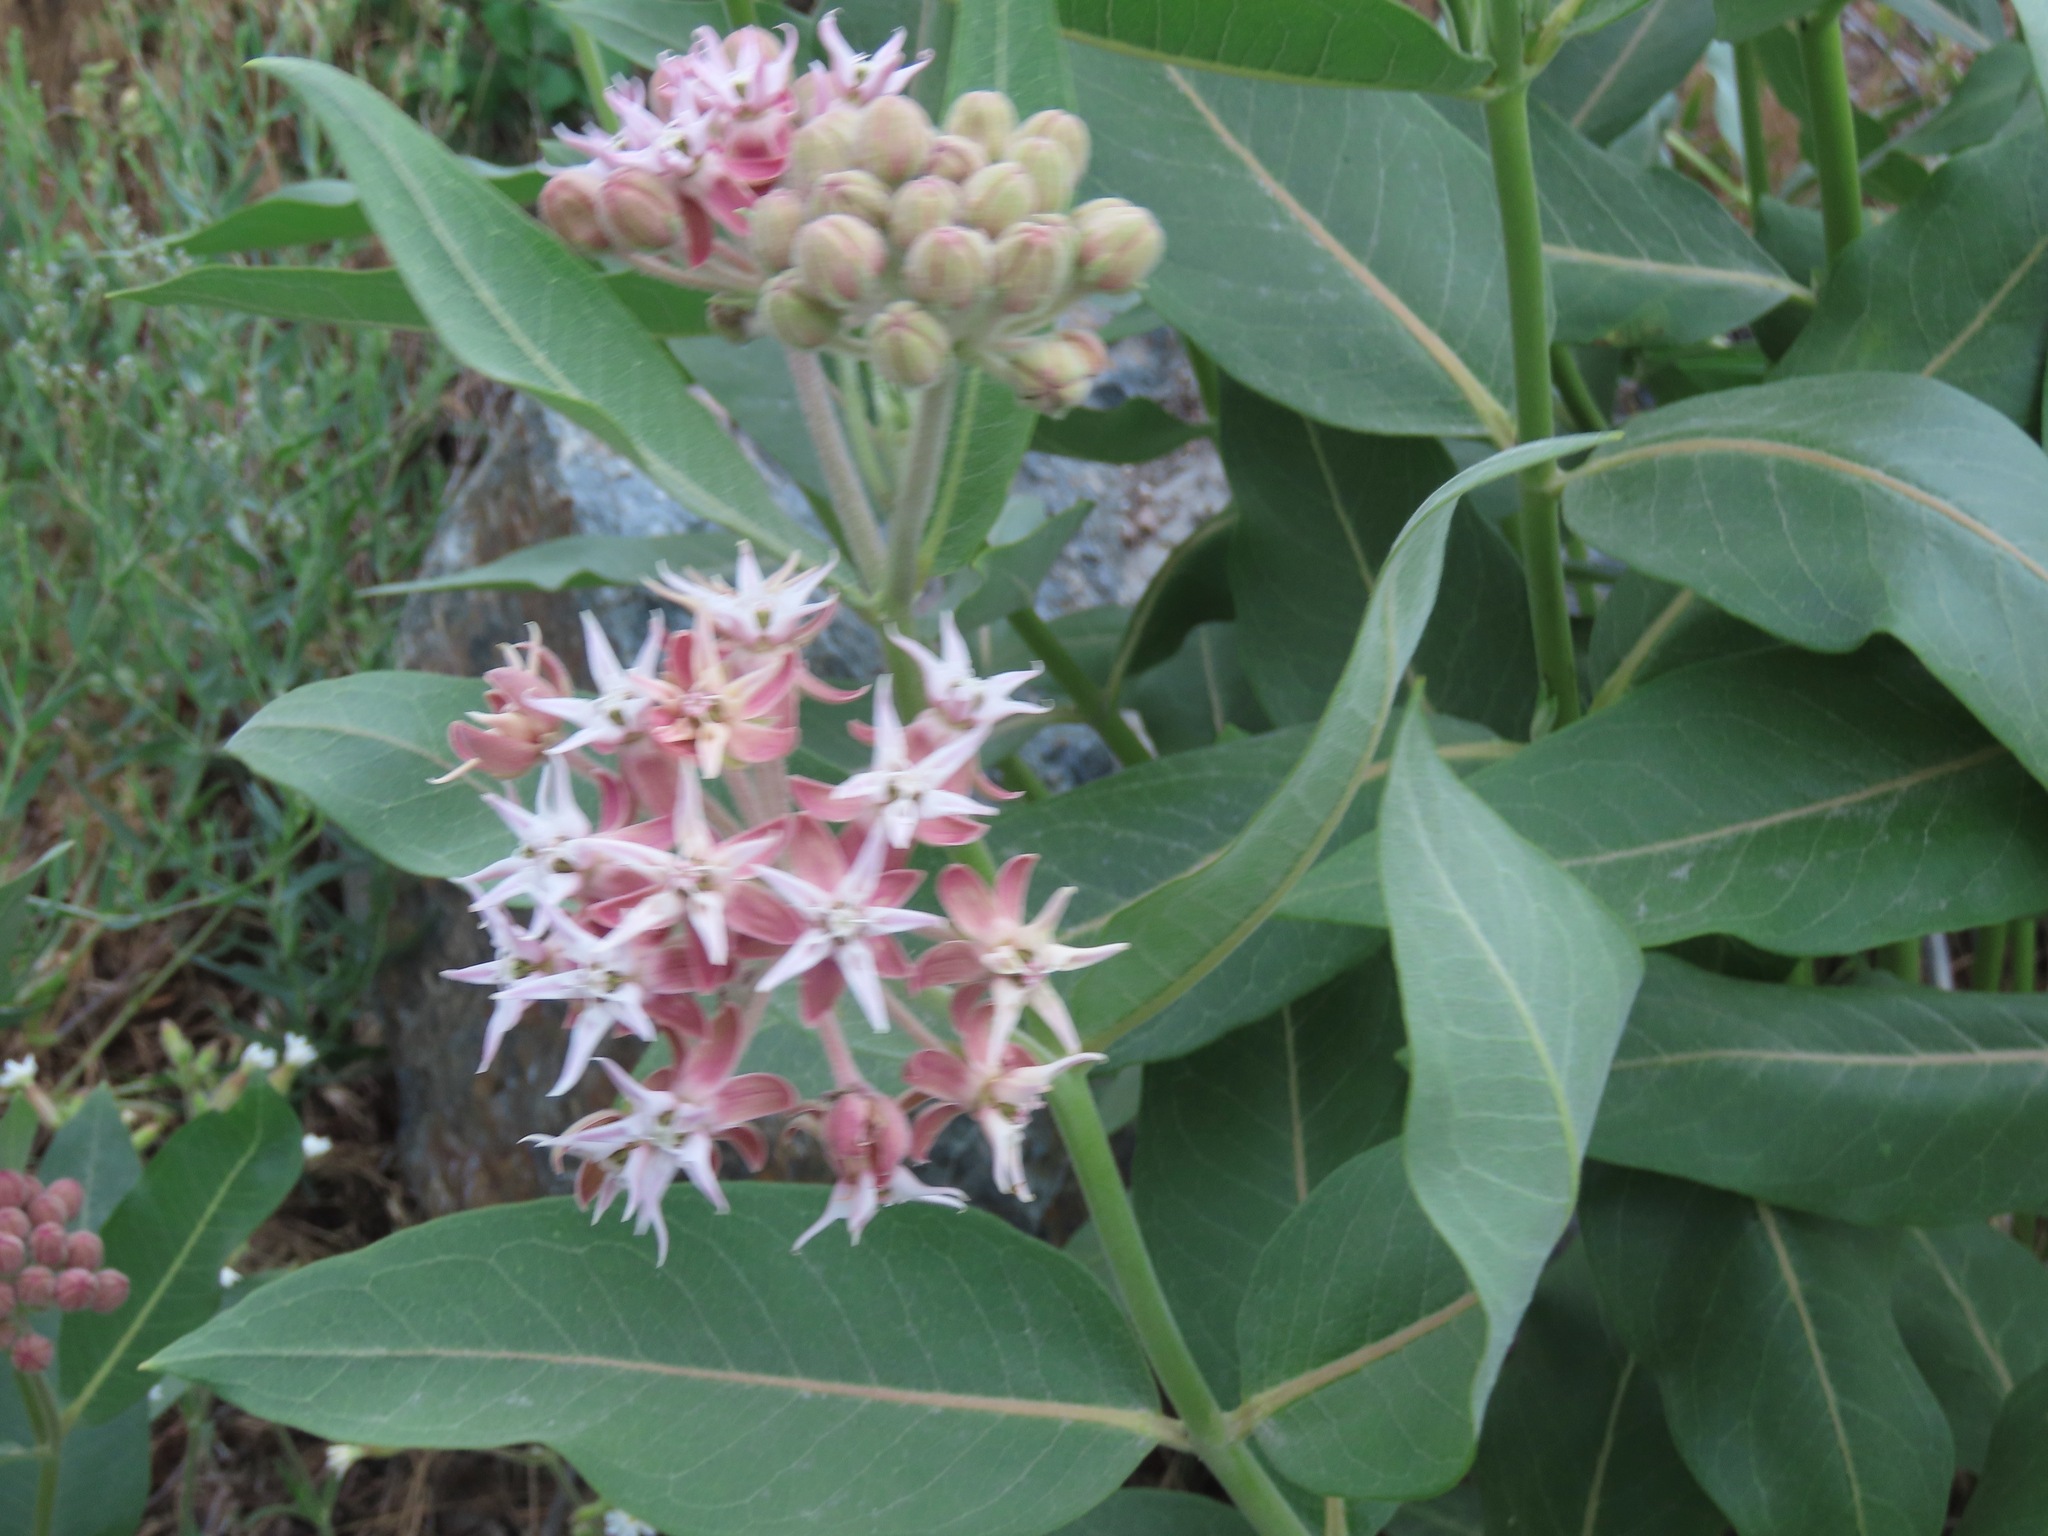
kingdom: Plantae
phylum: Tracheophyta
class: Magnoliopsida
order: Gentianales
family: Apocynaceae
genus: Asclepias
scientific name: Asclepias speciosa
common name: Showy milkweed
